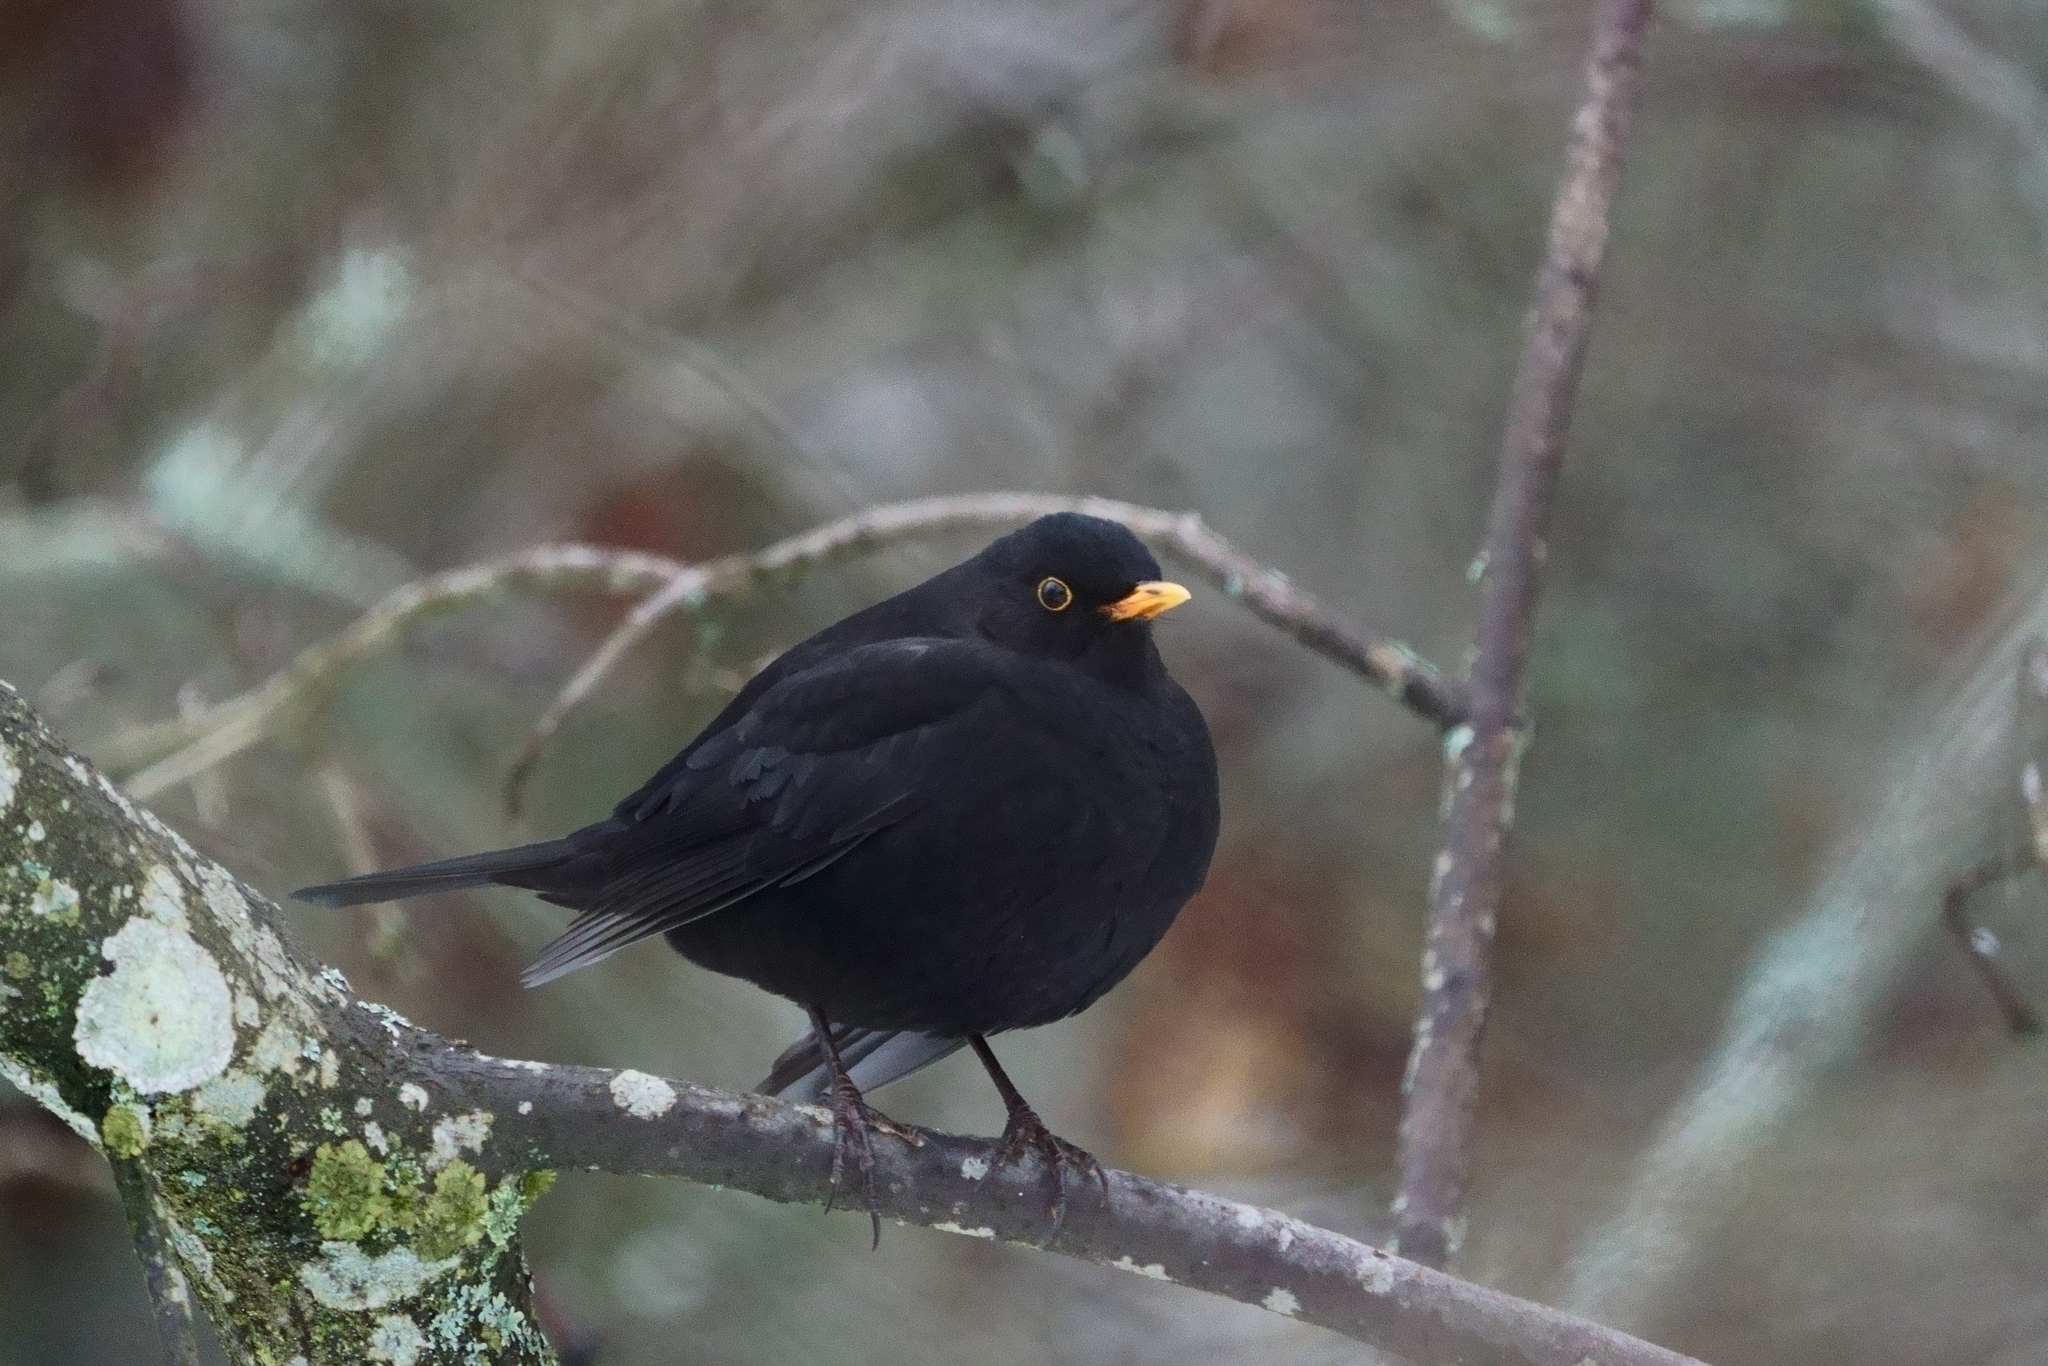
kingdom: Animalia
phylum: Chordata
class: Aves
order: Passeriformes
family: Turdidae
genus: Turdus
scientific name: Turdus merula
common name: Common blackbird
